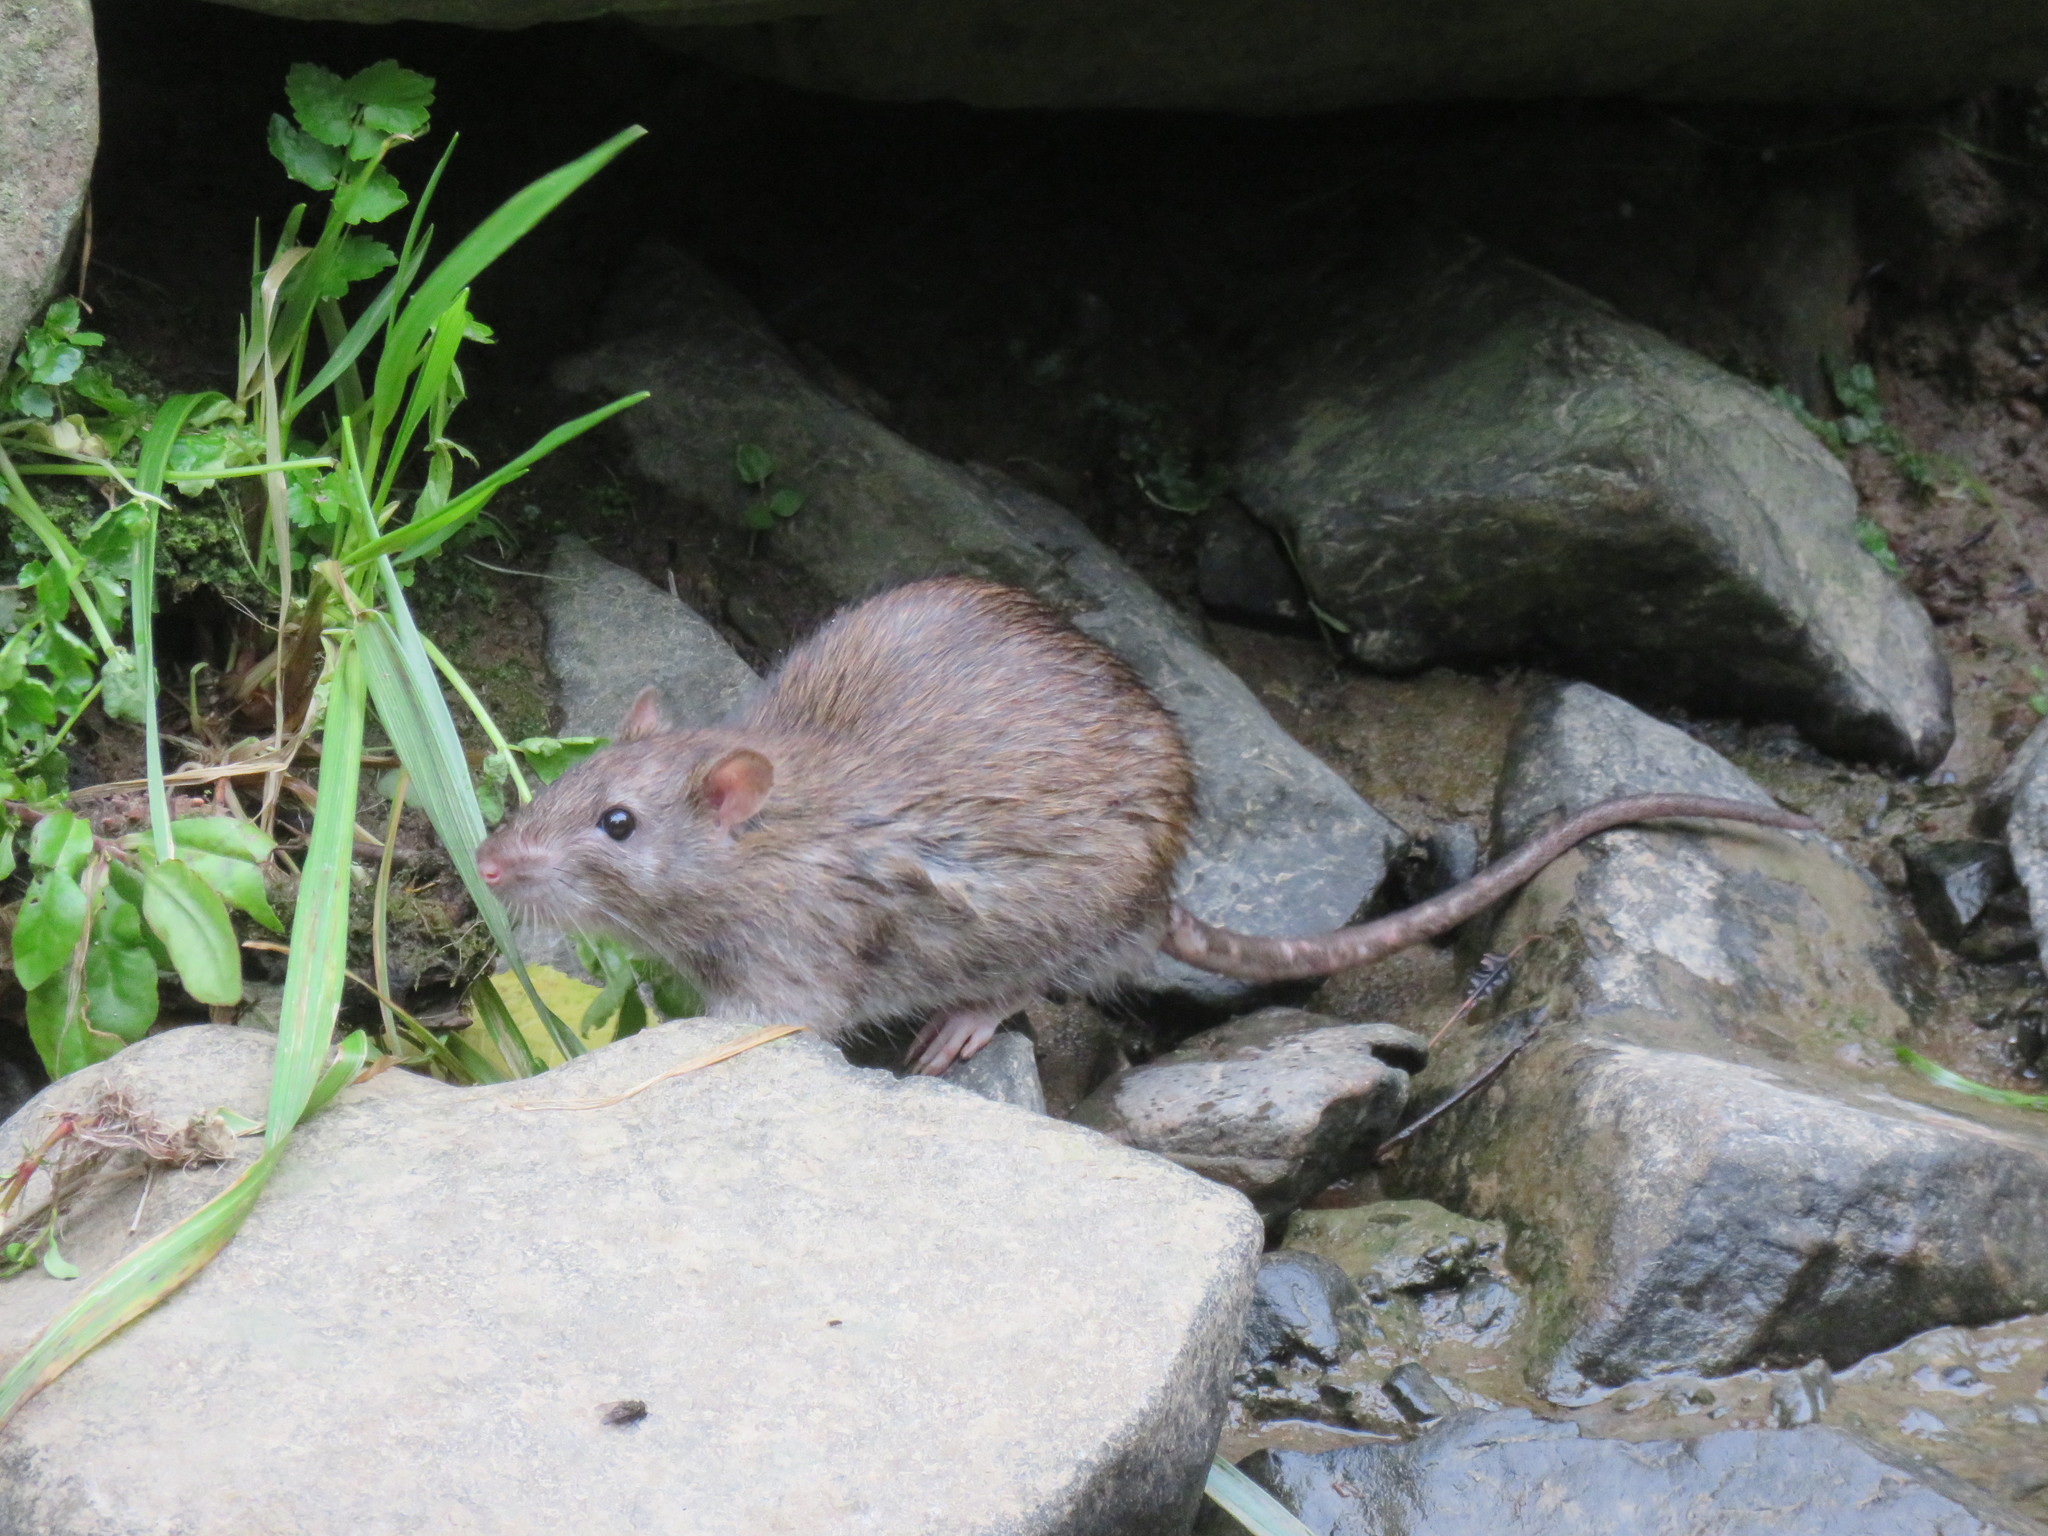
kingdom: Animalia
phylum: Chordata
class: Mammalia
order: Rodentia
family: Muridae
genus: Rattus
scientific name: Rattus norvegicus
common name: Brown rat
